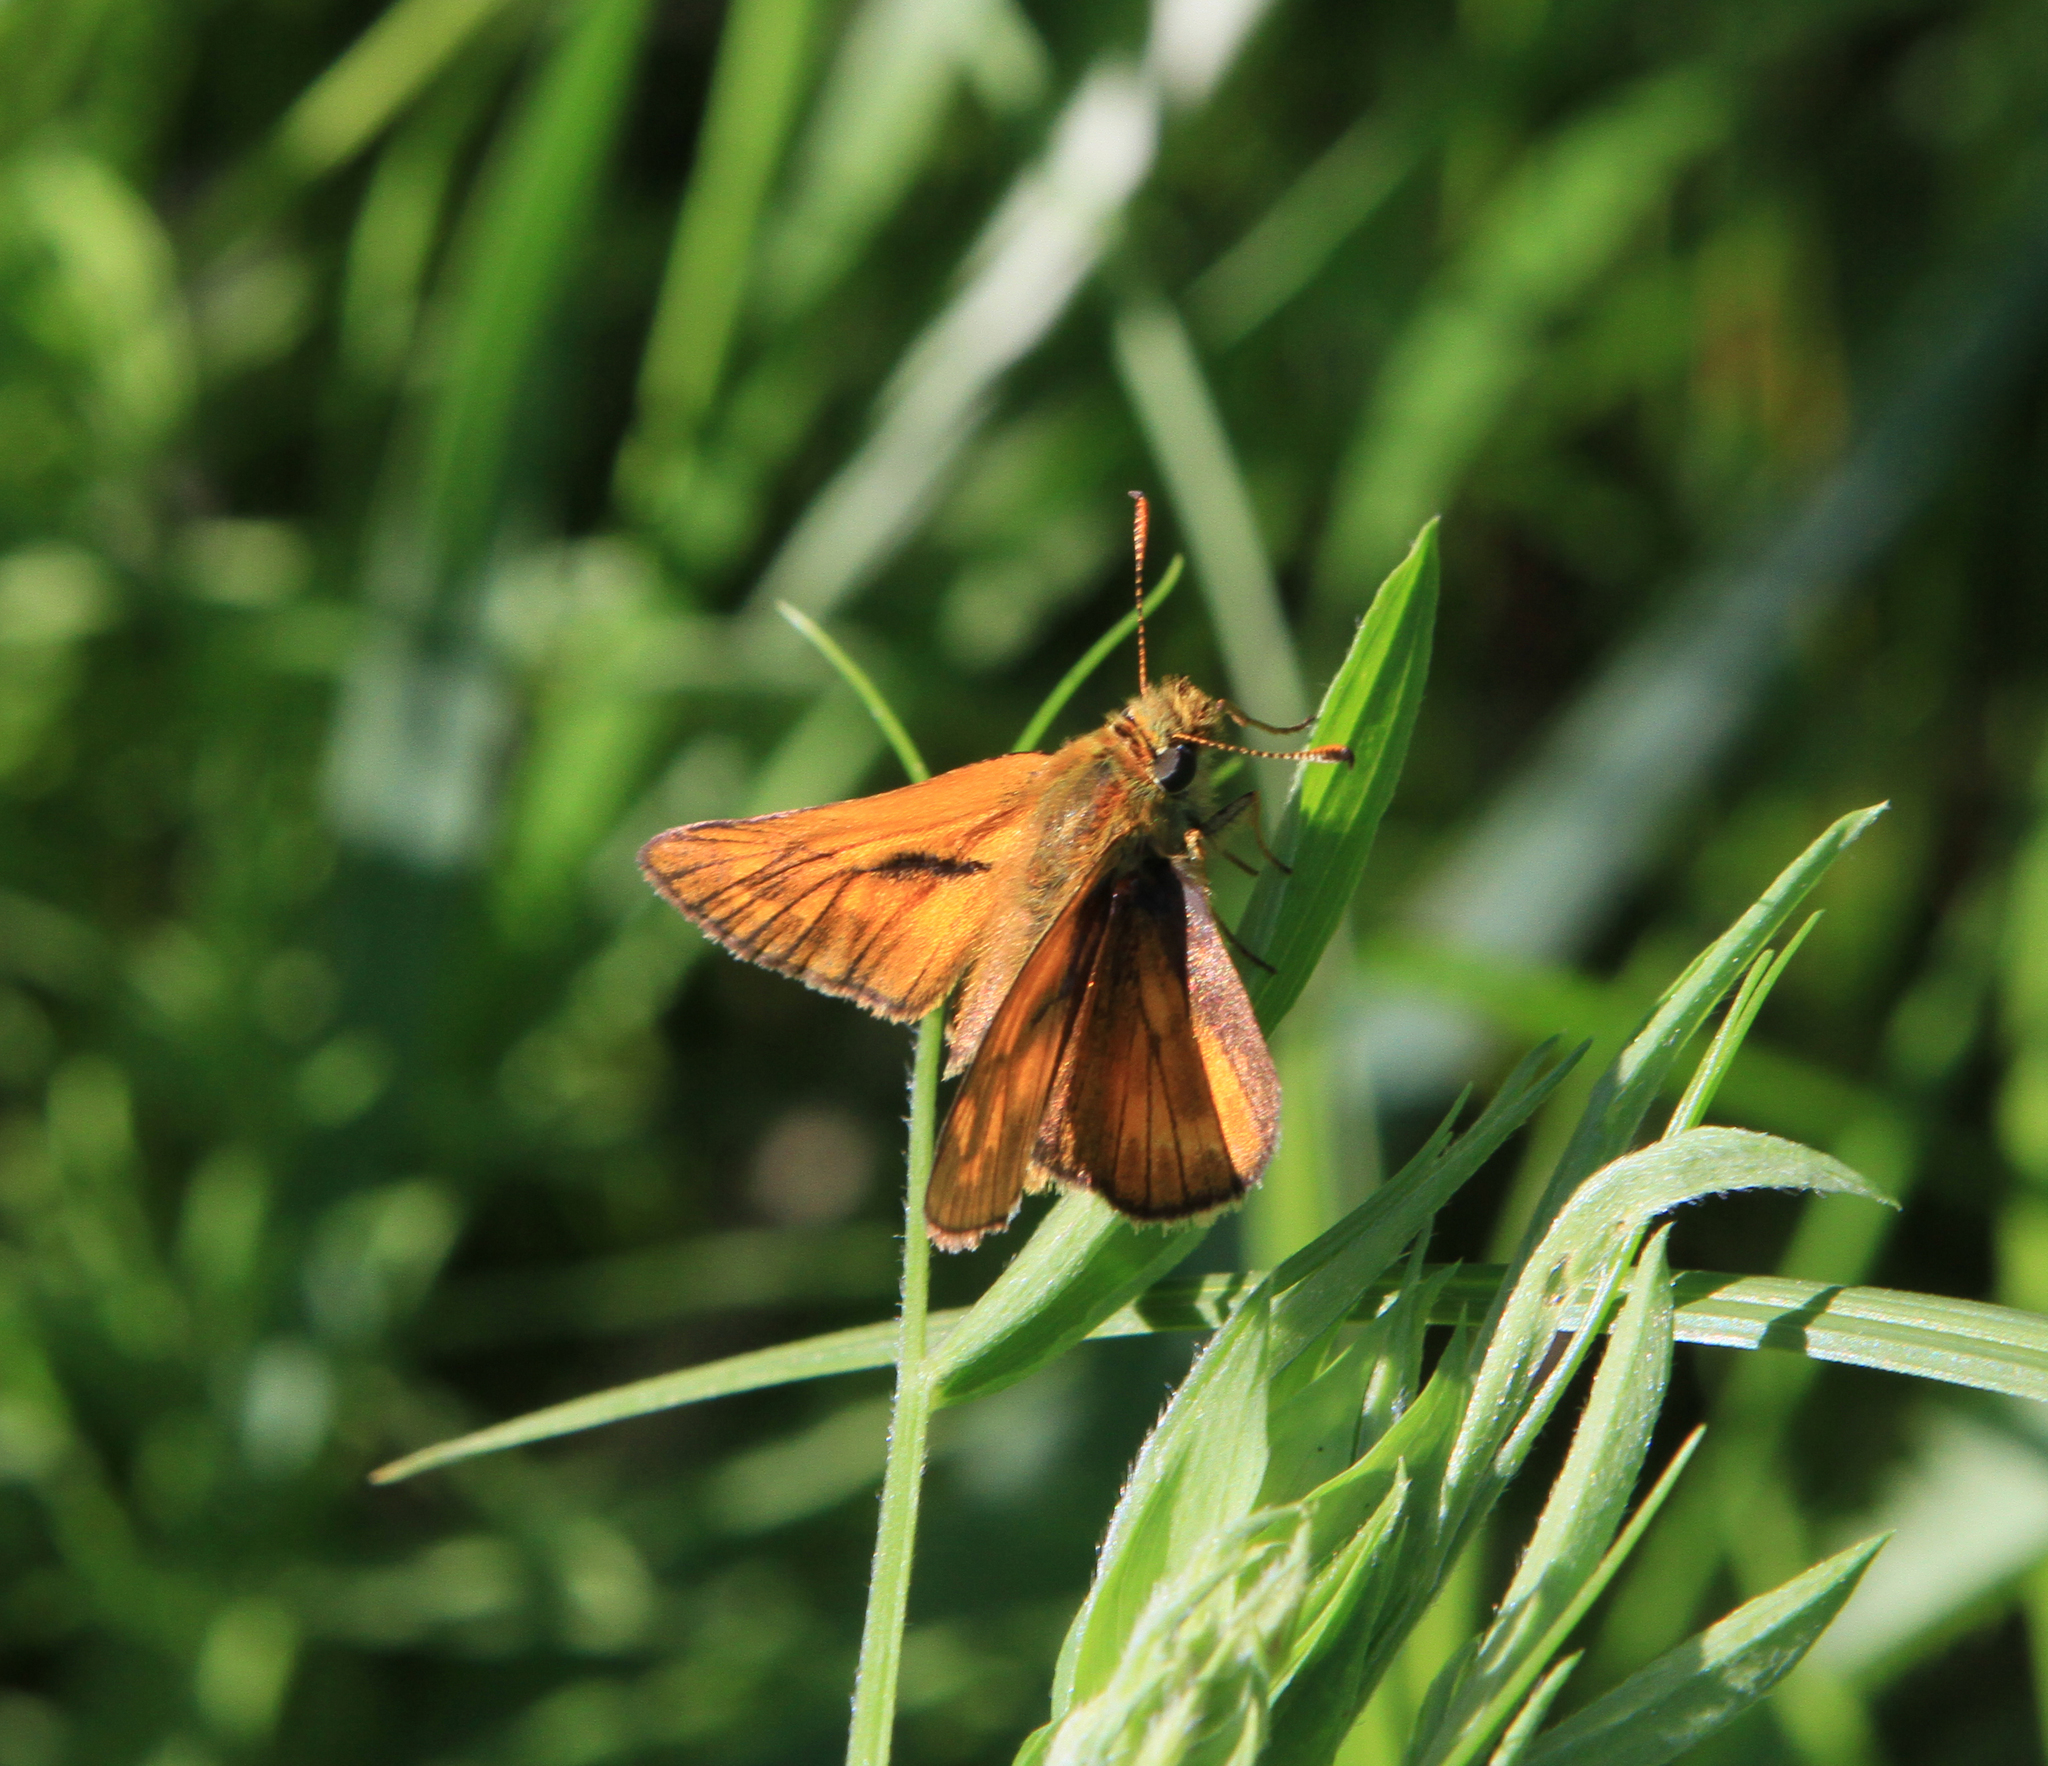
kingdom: Animalia
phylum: Arthropoda
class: Insecta
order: Lepidoptera
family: Hesperiidae
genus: Ochlodes
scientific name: Ochlodes venata
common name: Large skipper
